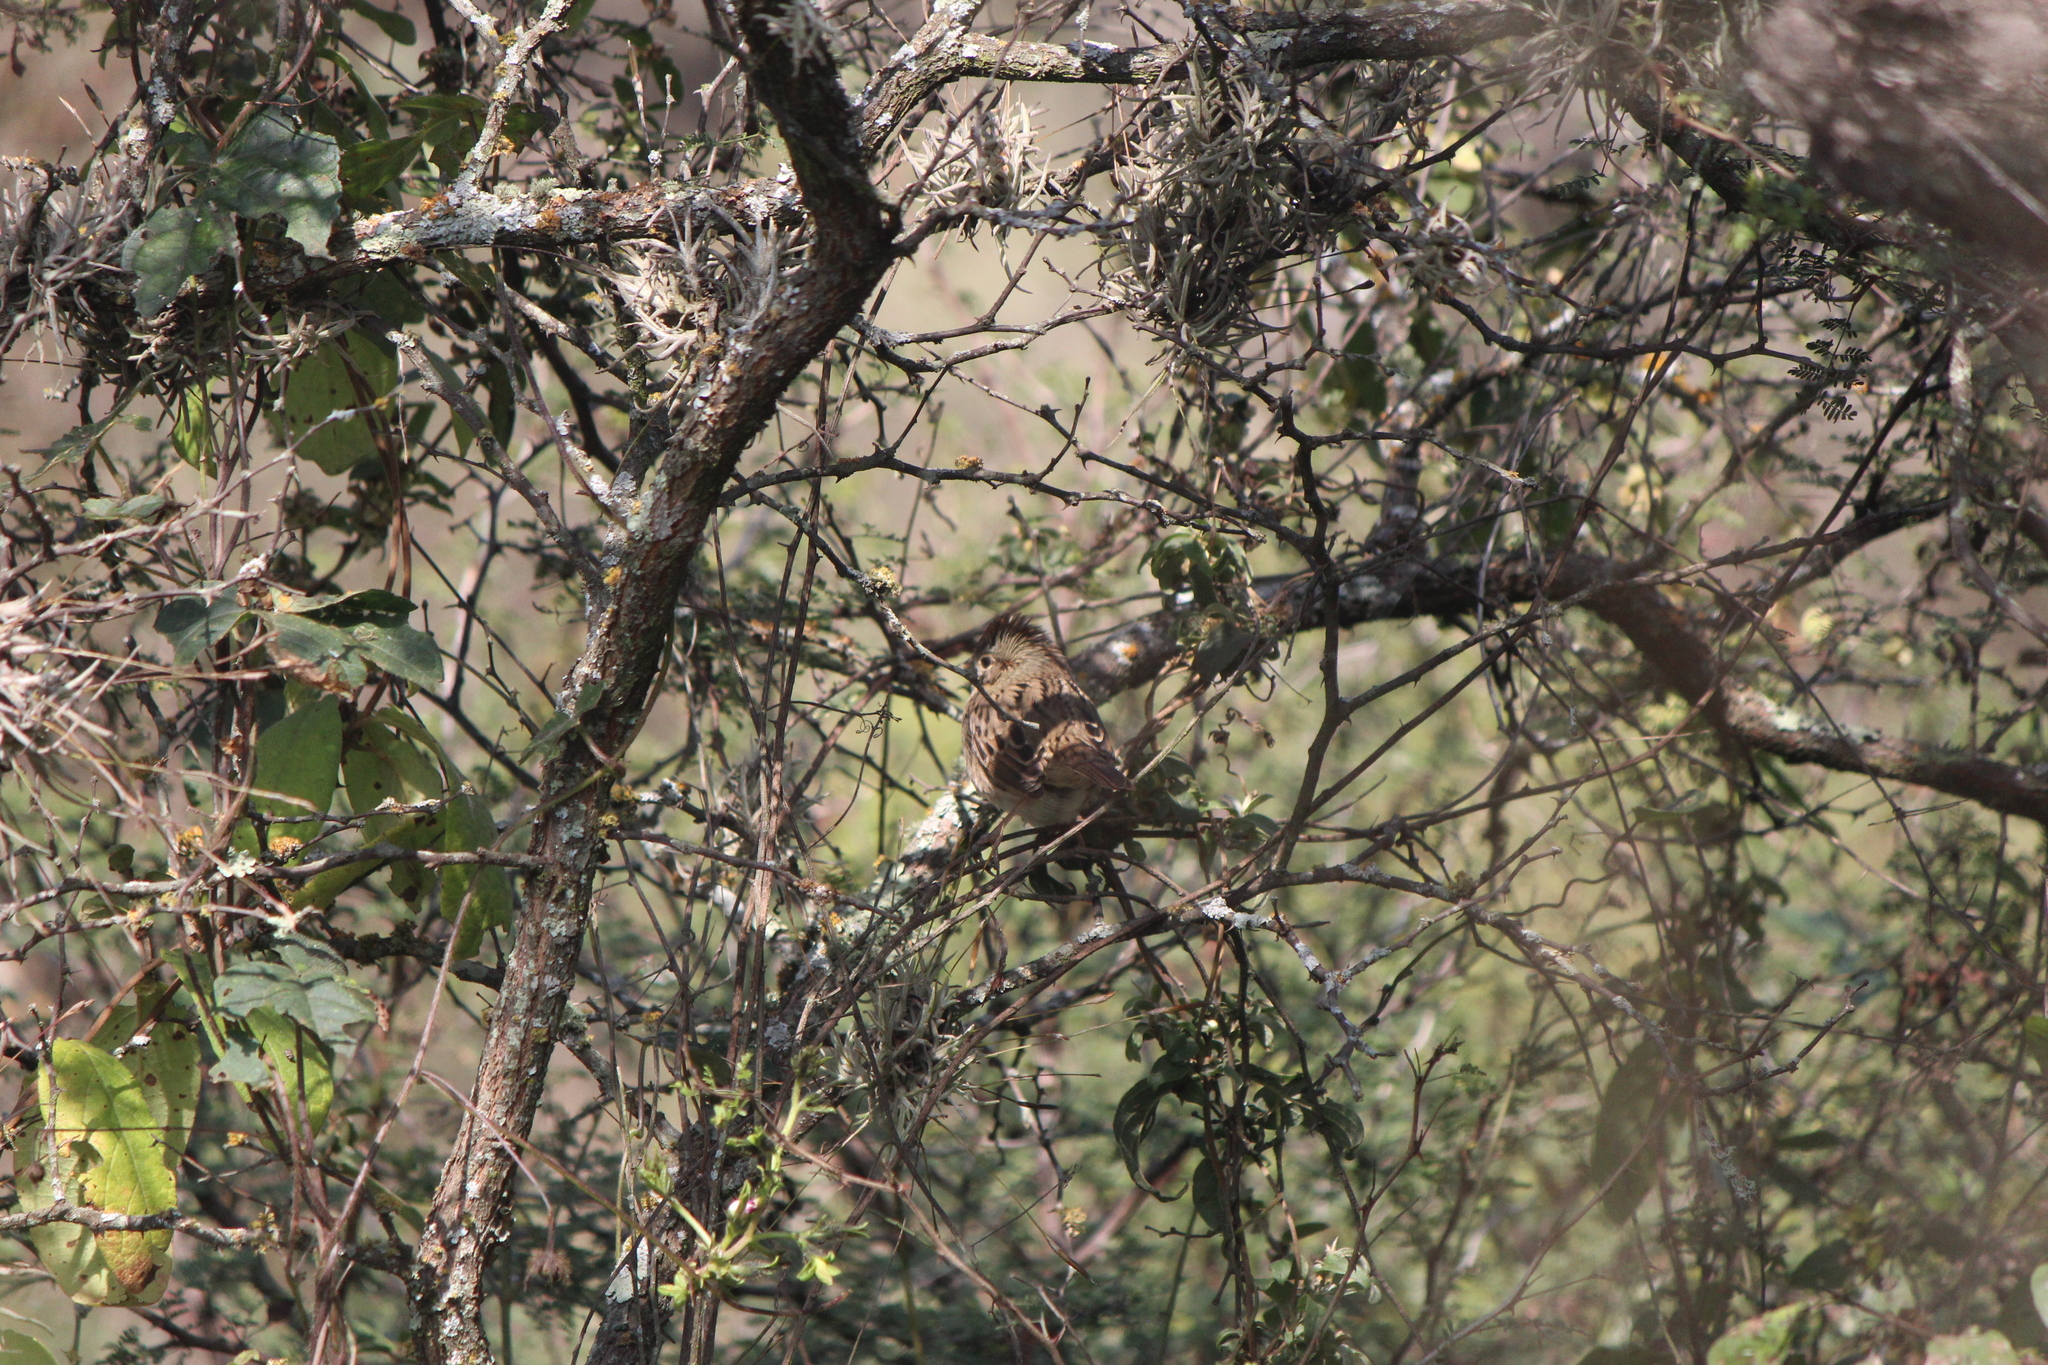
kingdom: Animalia
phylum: Chordata
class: Aves
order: Passeriformes
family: Passerellidae
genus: Melospiza
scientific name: Melospiza lincolnii
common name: Lincoln's sparrow
